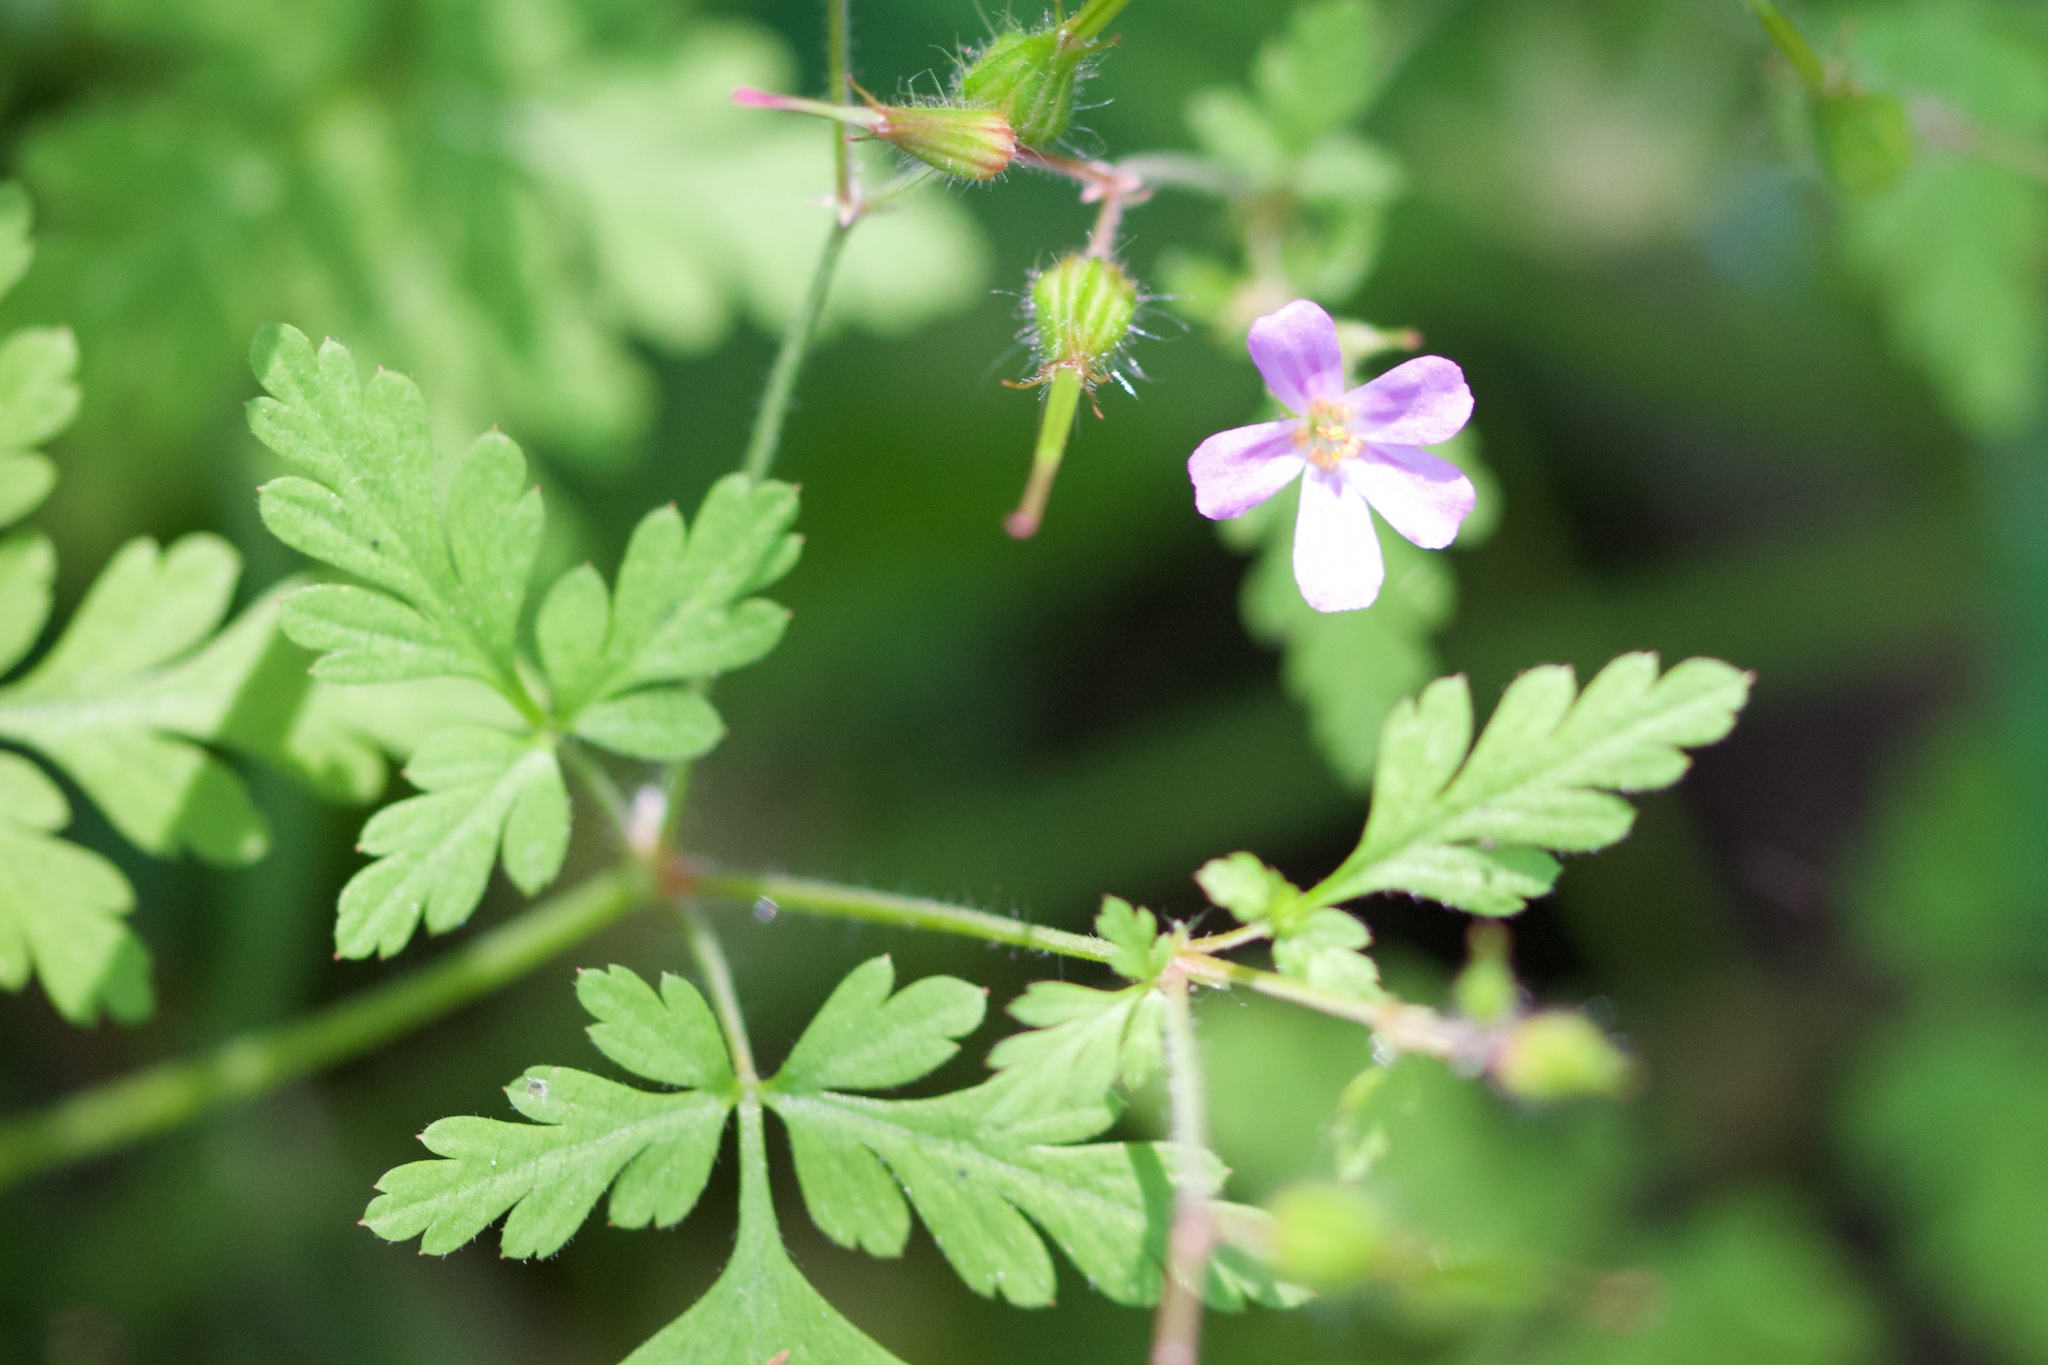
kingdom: Plantae
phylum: Tracheophyta
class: Magnoliopsida
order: Geraniales
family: Geraniaceae
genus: Geranium
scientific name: Geranium robertianum
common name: Herb-robert
